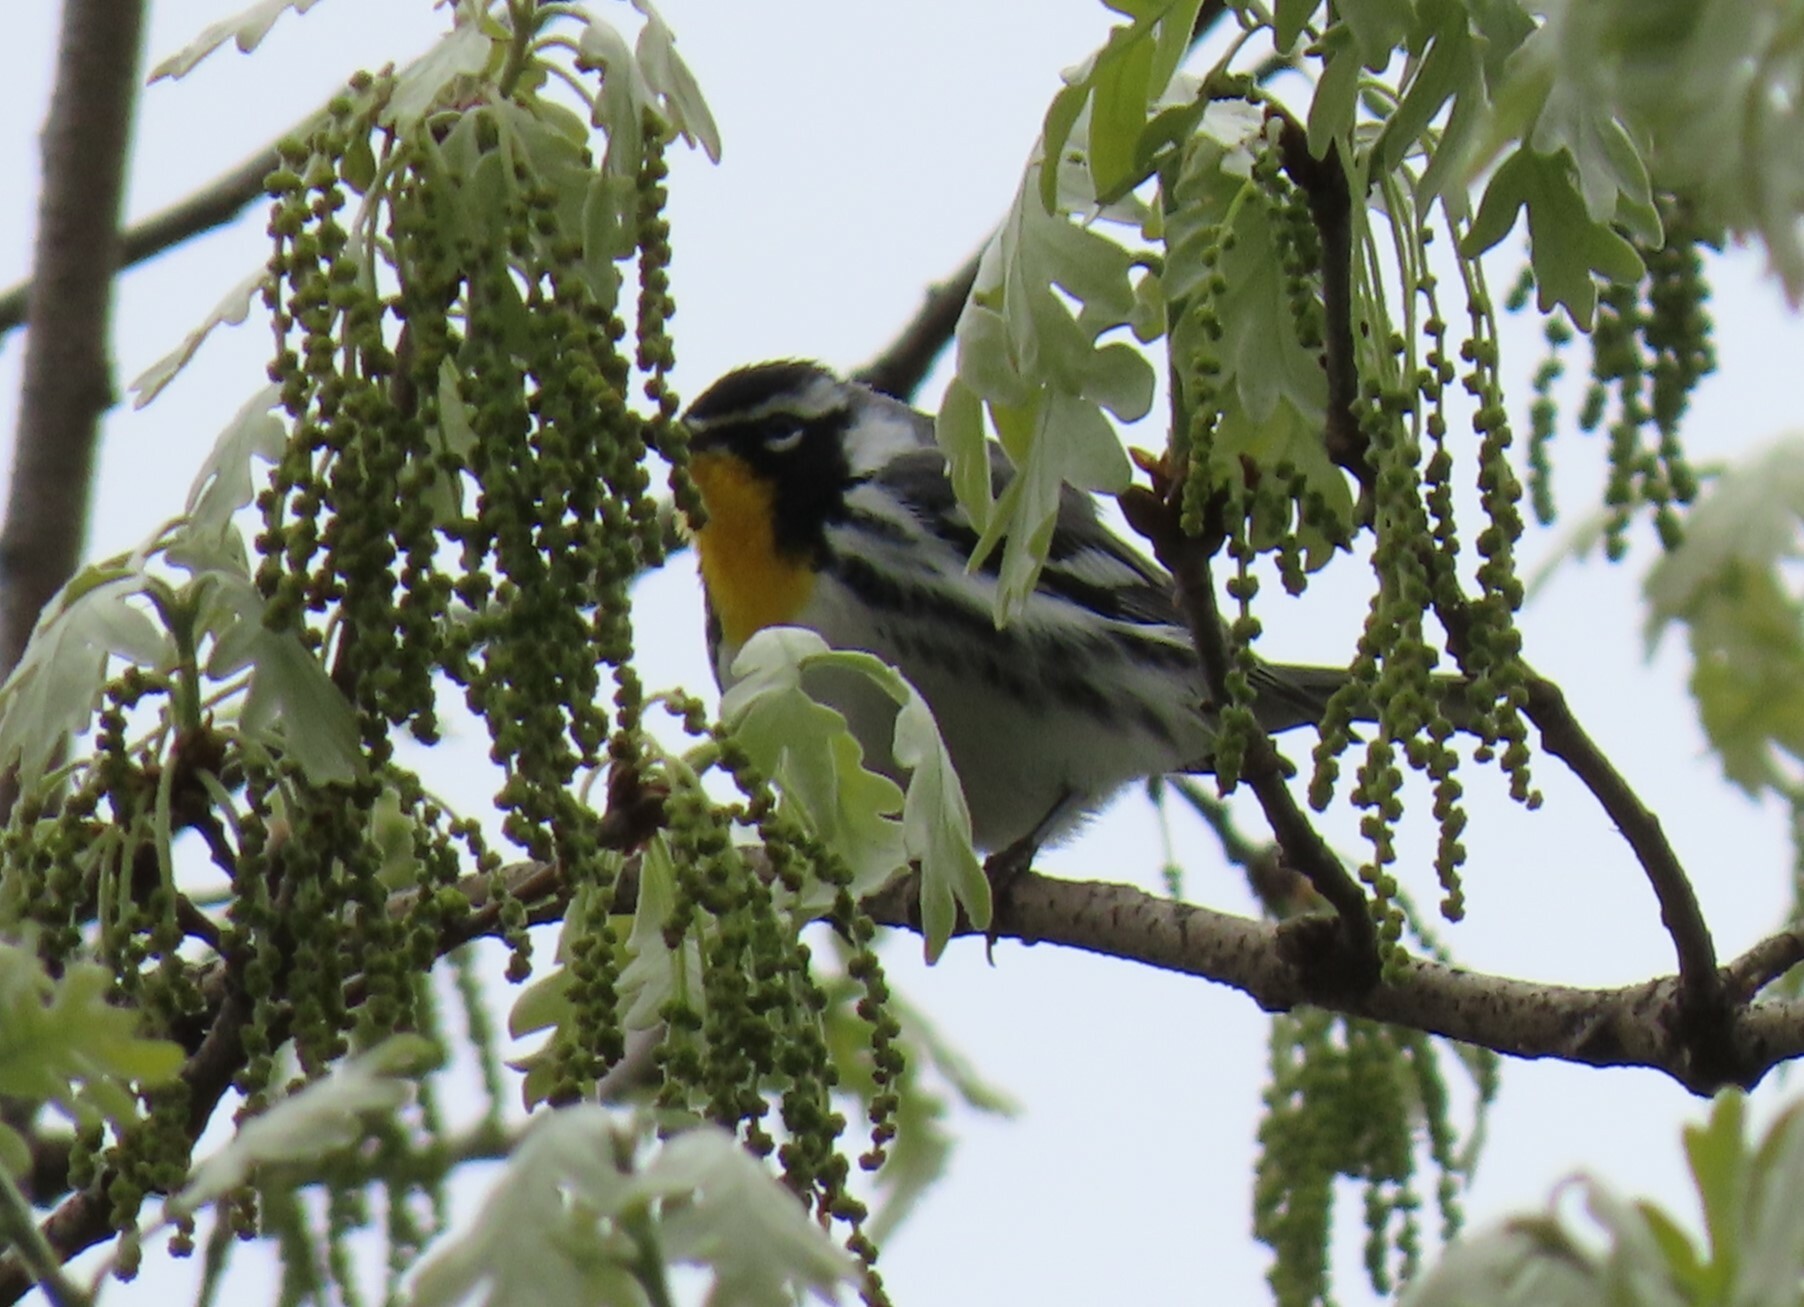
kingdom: Animalia
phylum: Chordata
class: Aves
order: Passeriformes
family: Parulidae
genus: Setophaga
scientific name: Setophaga dominica
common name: Yellow-throated warbler
